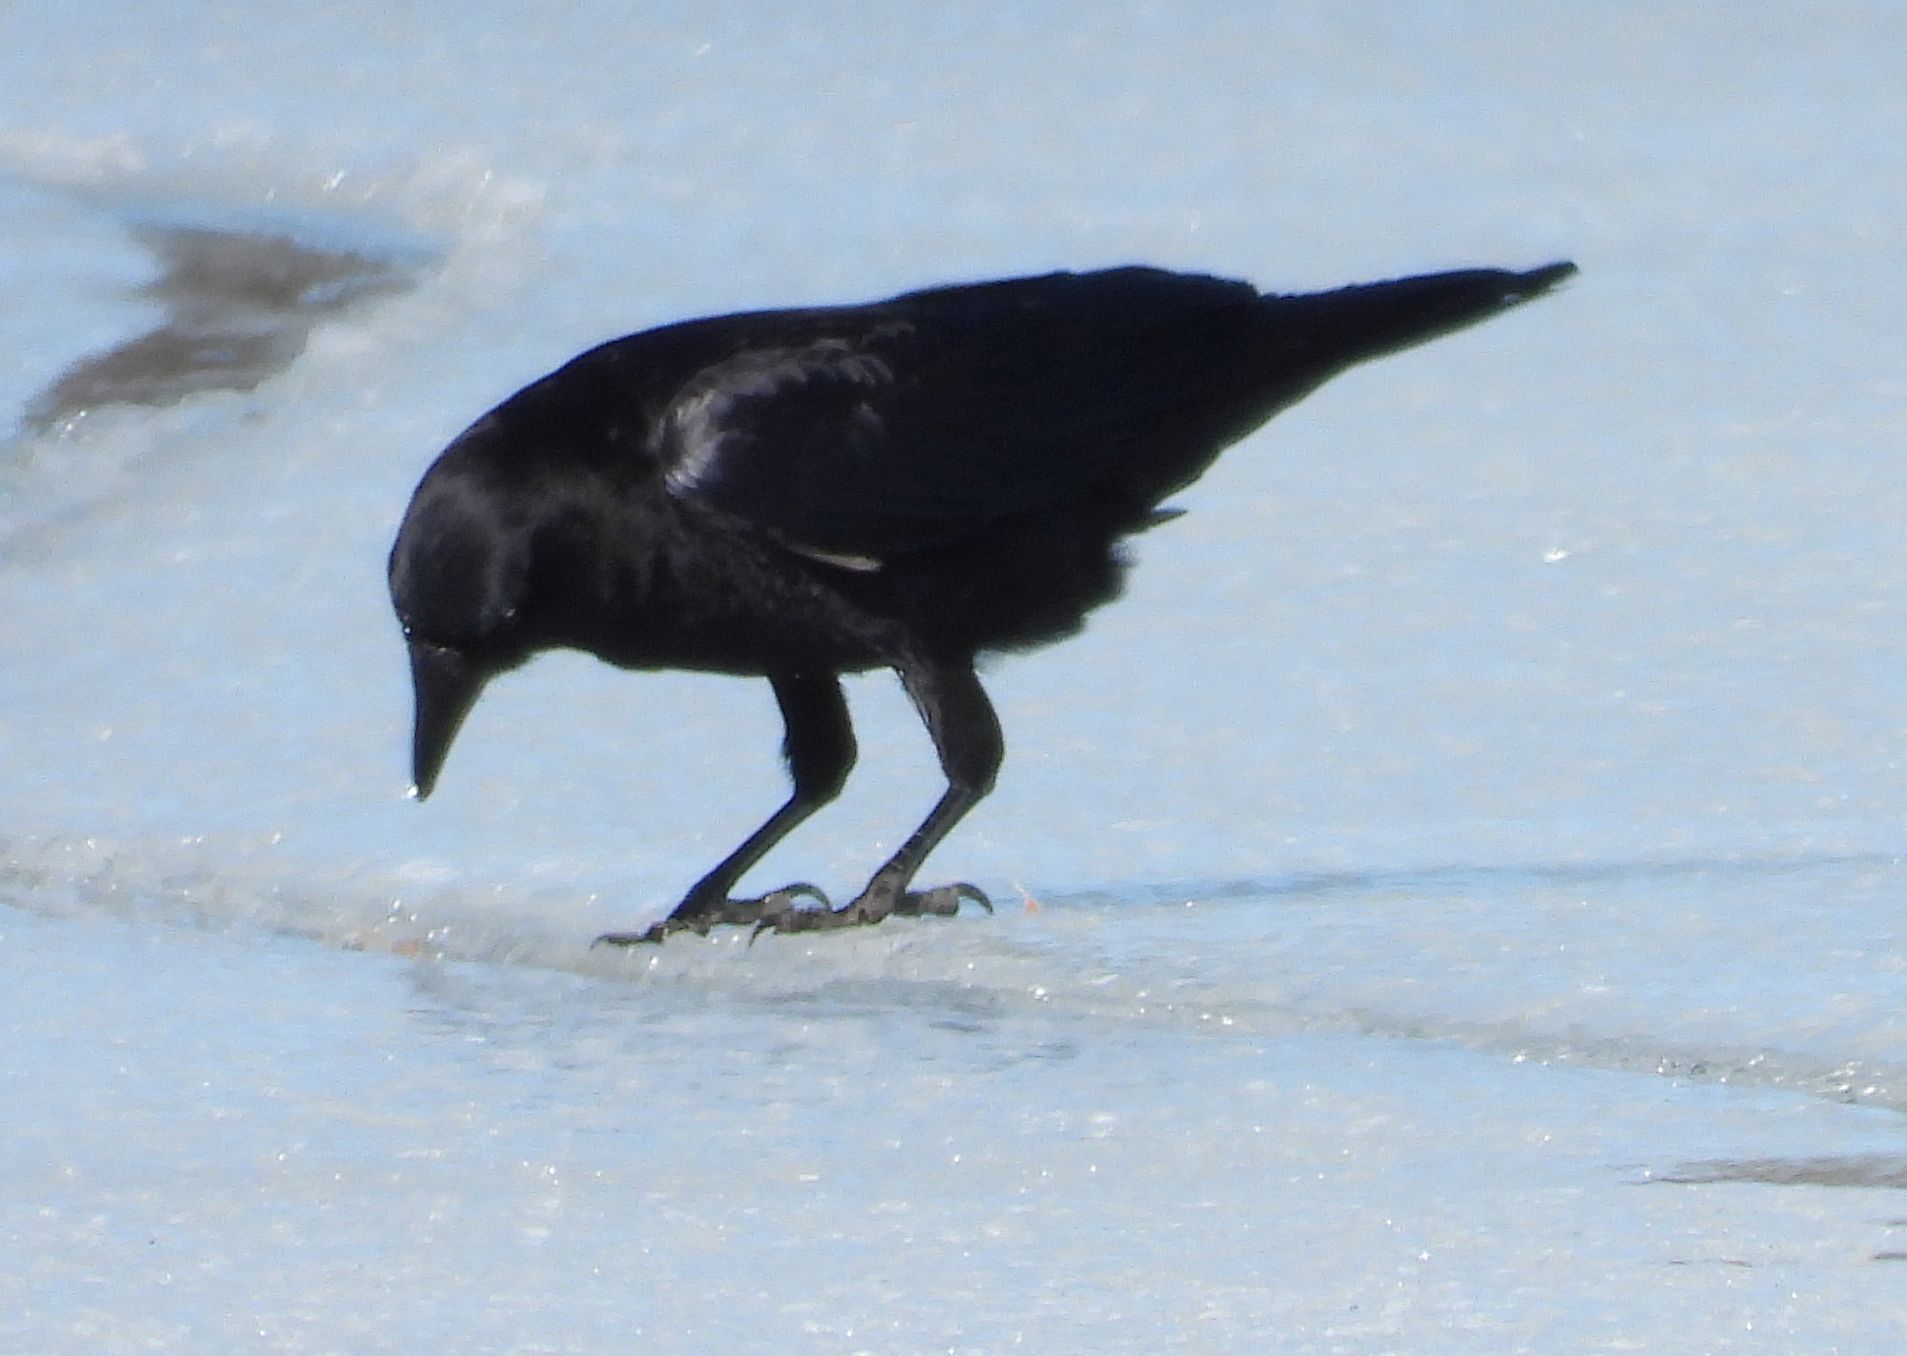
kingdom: Animalia
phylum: Chordata
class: Aves
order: Passeriformes
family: Corvidae
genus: Corvus
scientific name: Corvus brachyrhynchos
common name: American crow
